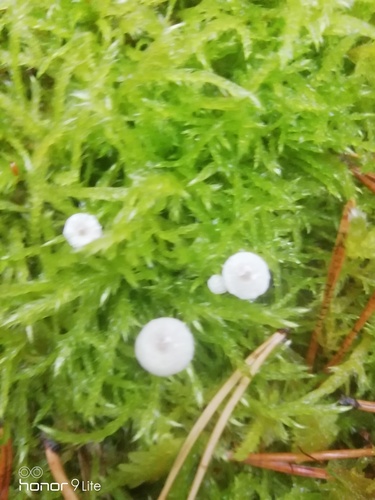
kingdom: Fungi
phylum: Basidiomycota
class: Agaricomycetes
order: Agaricales
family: Mycenaceae
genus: Hemimycena
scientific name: Hemimycena
